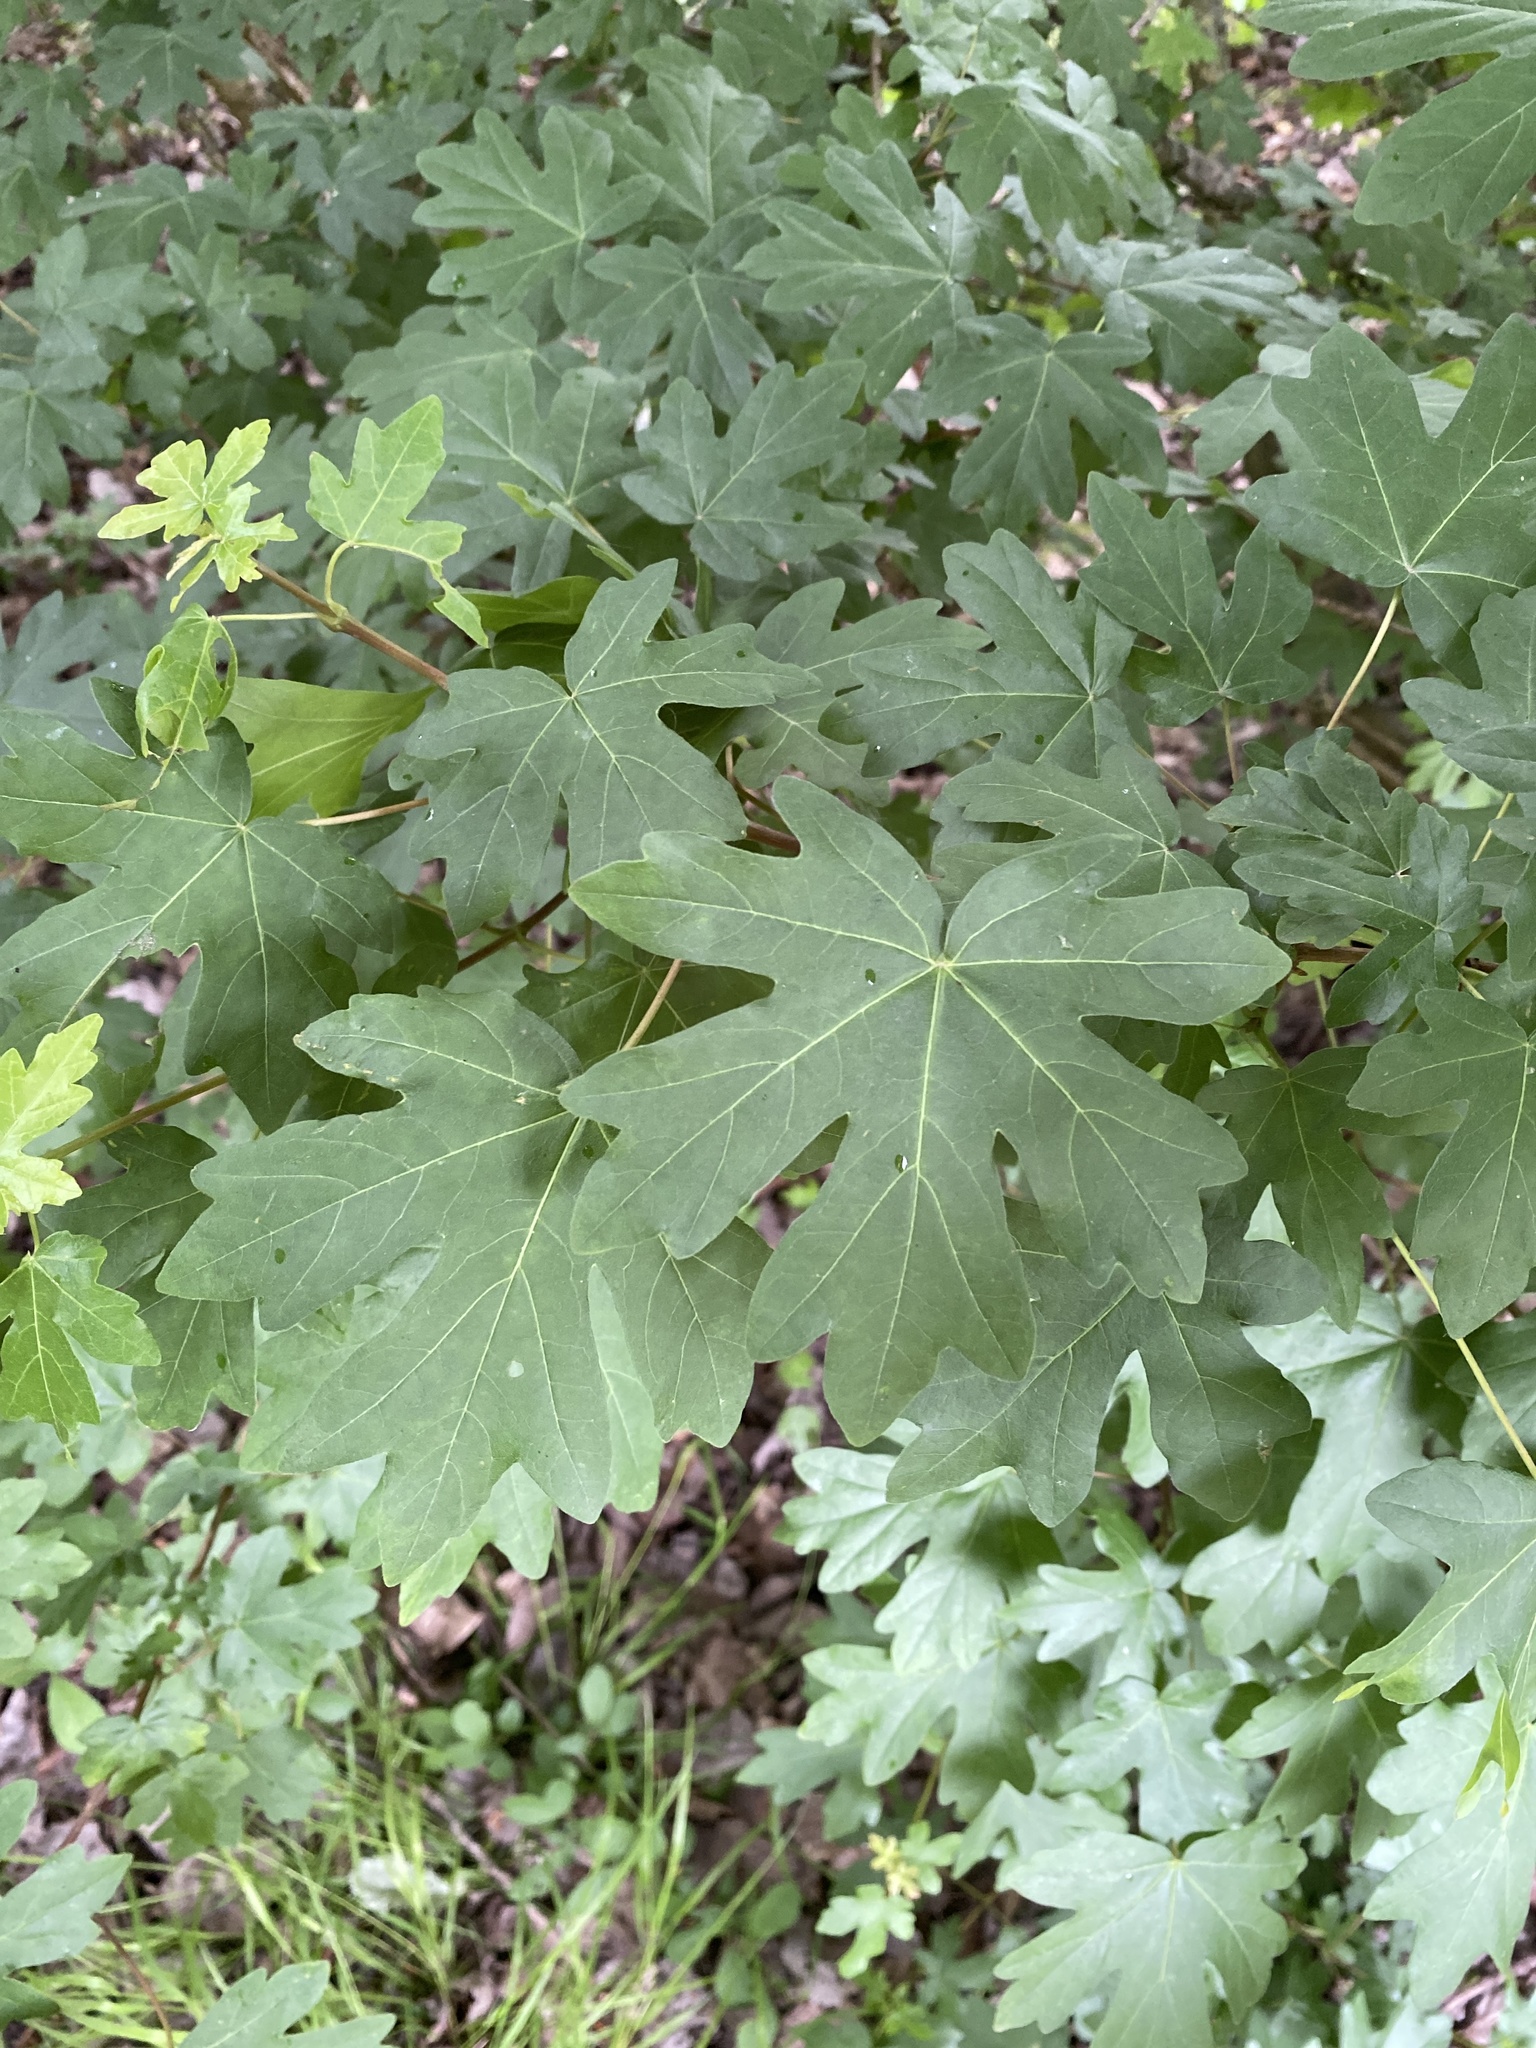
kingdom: Plantae
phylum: Tracheophyta
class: Magnoliopsida
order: Sapindales
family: Sapindaceae
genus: Acer
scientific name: Acer campestre
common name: Field maple
